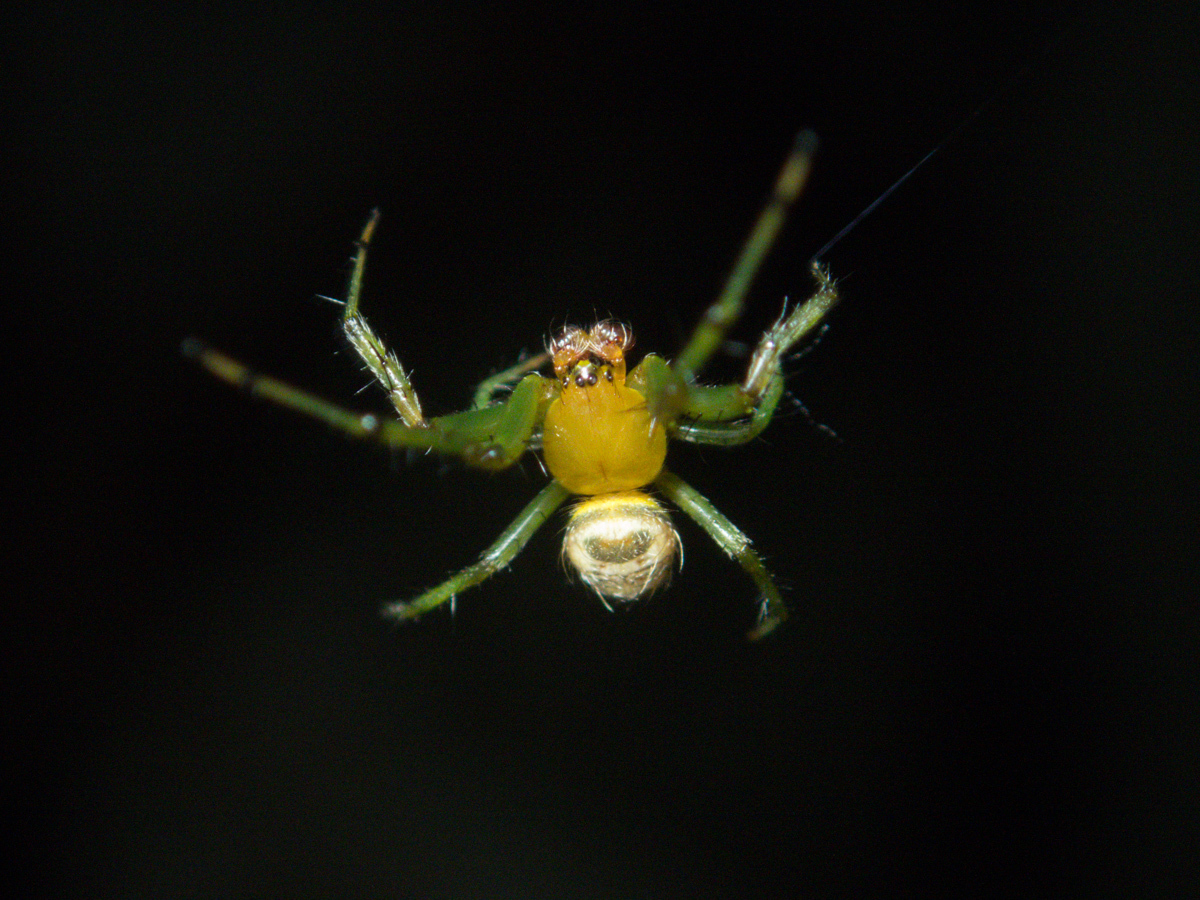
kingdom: Animalia
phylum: Arthropoda
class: Arachnida
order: Araneae
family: Araneidae
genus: Bijoaraneus
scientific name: Bijoaraneus mitificus
